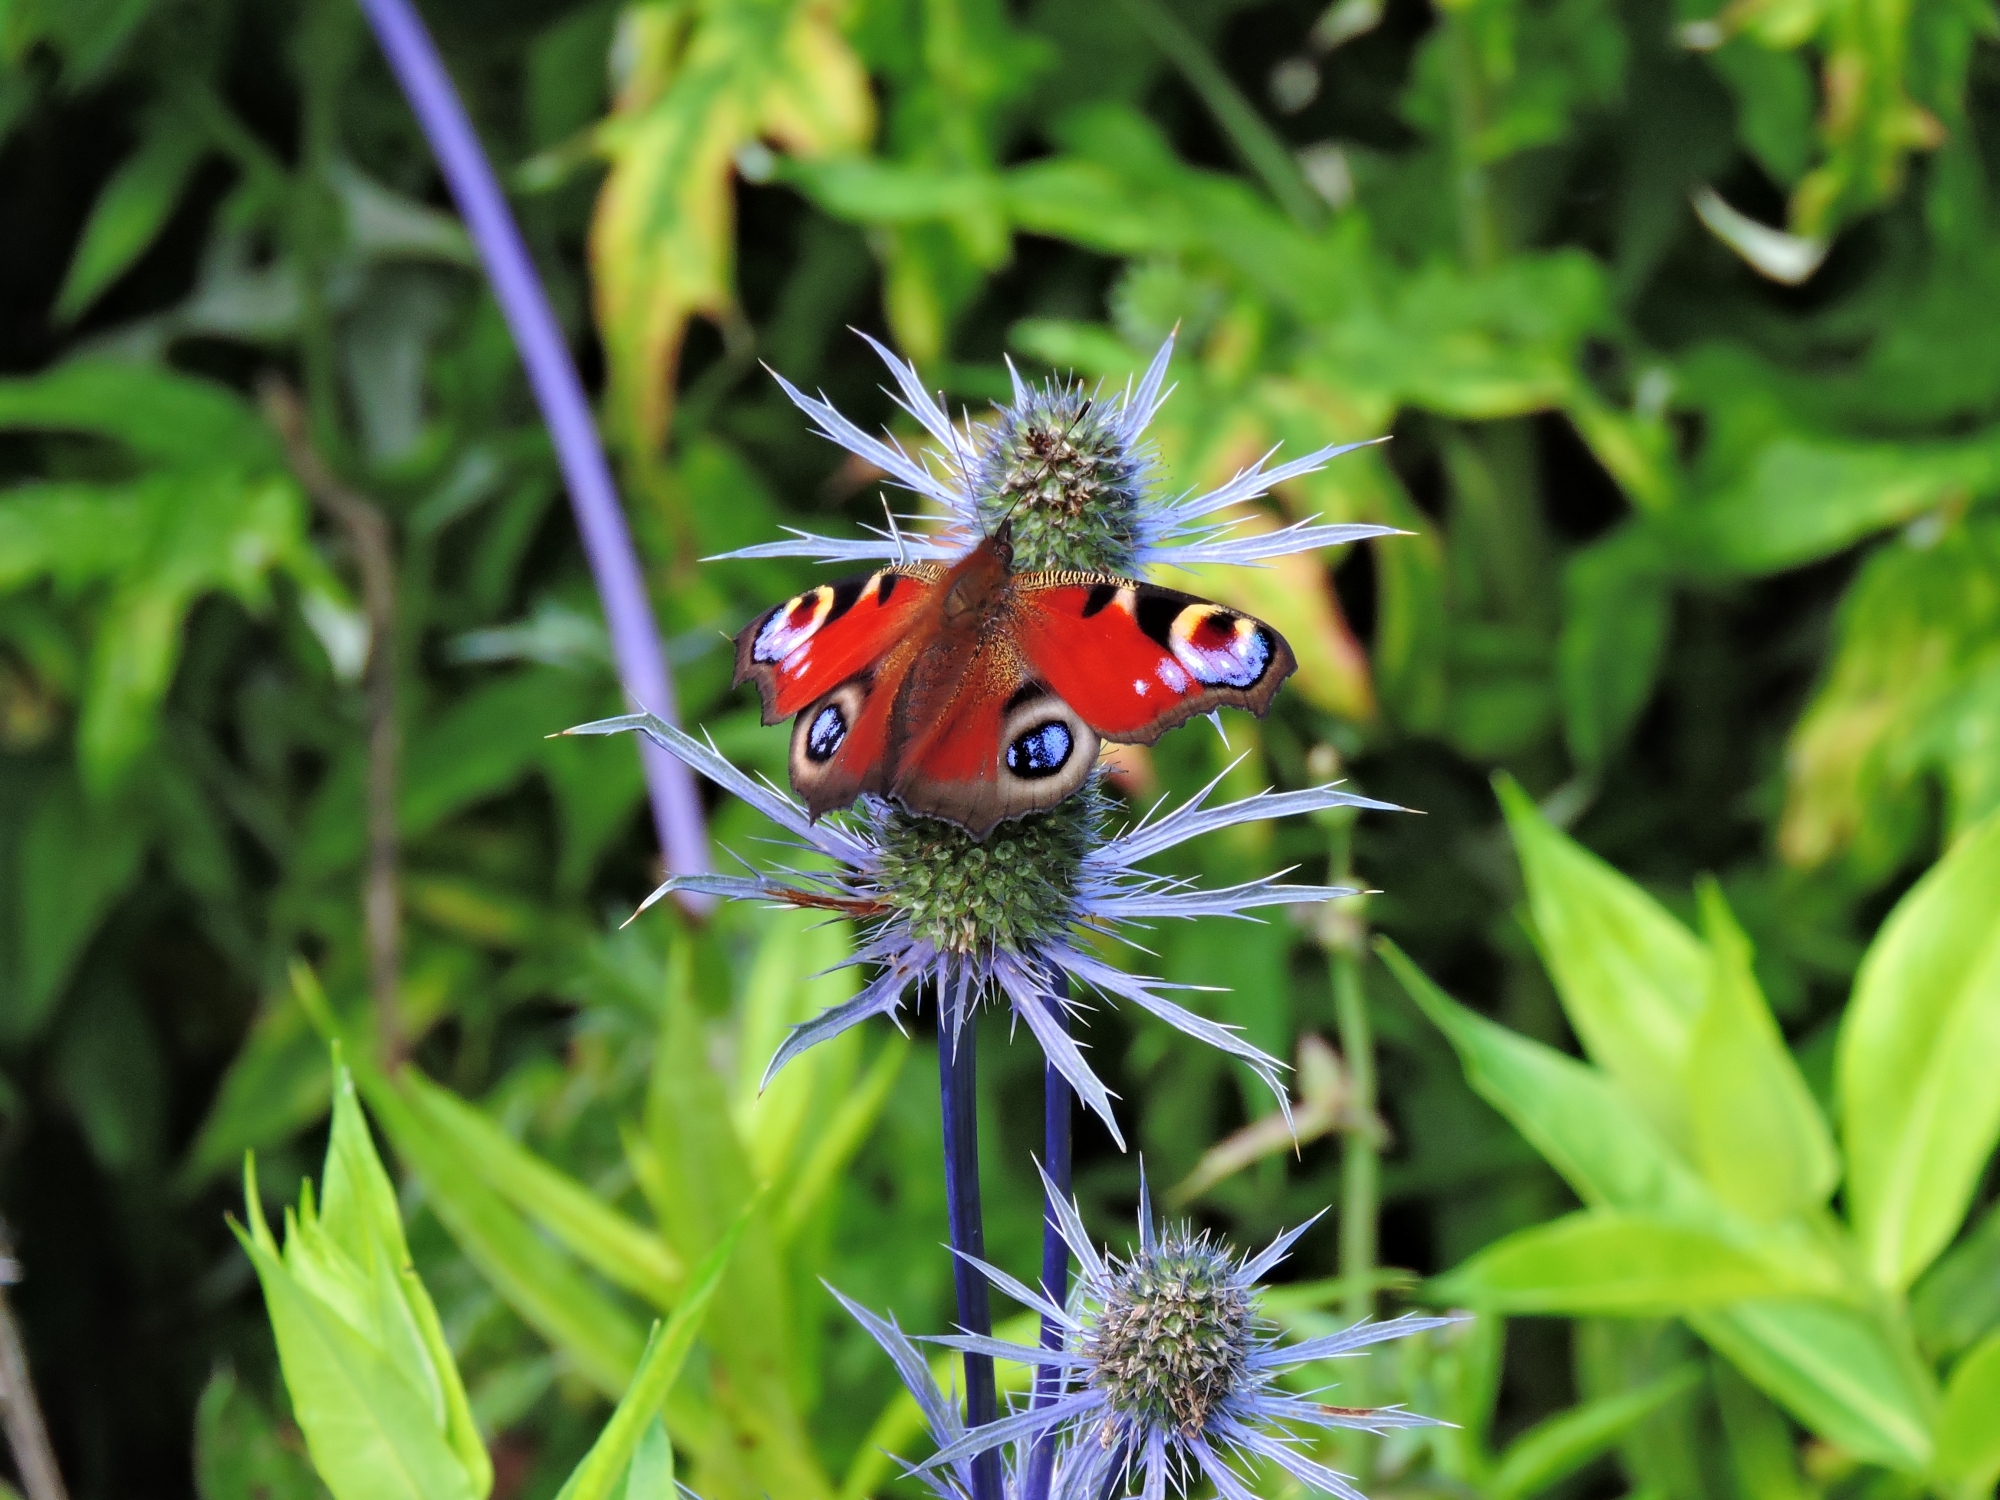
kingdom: Animalia
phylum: Arthropoda
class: Insecta
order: Lepidoptera
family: Nymphalidae
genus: Aglais
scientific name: Aglais io
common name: Peacock
